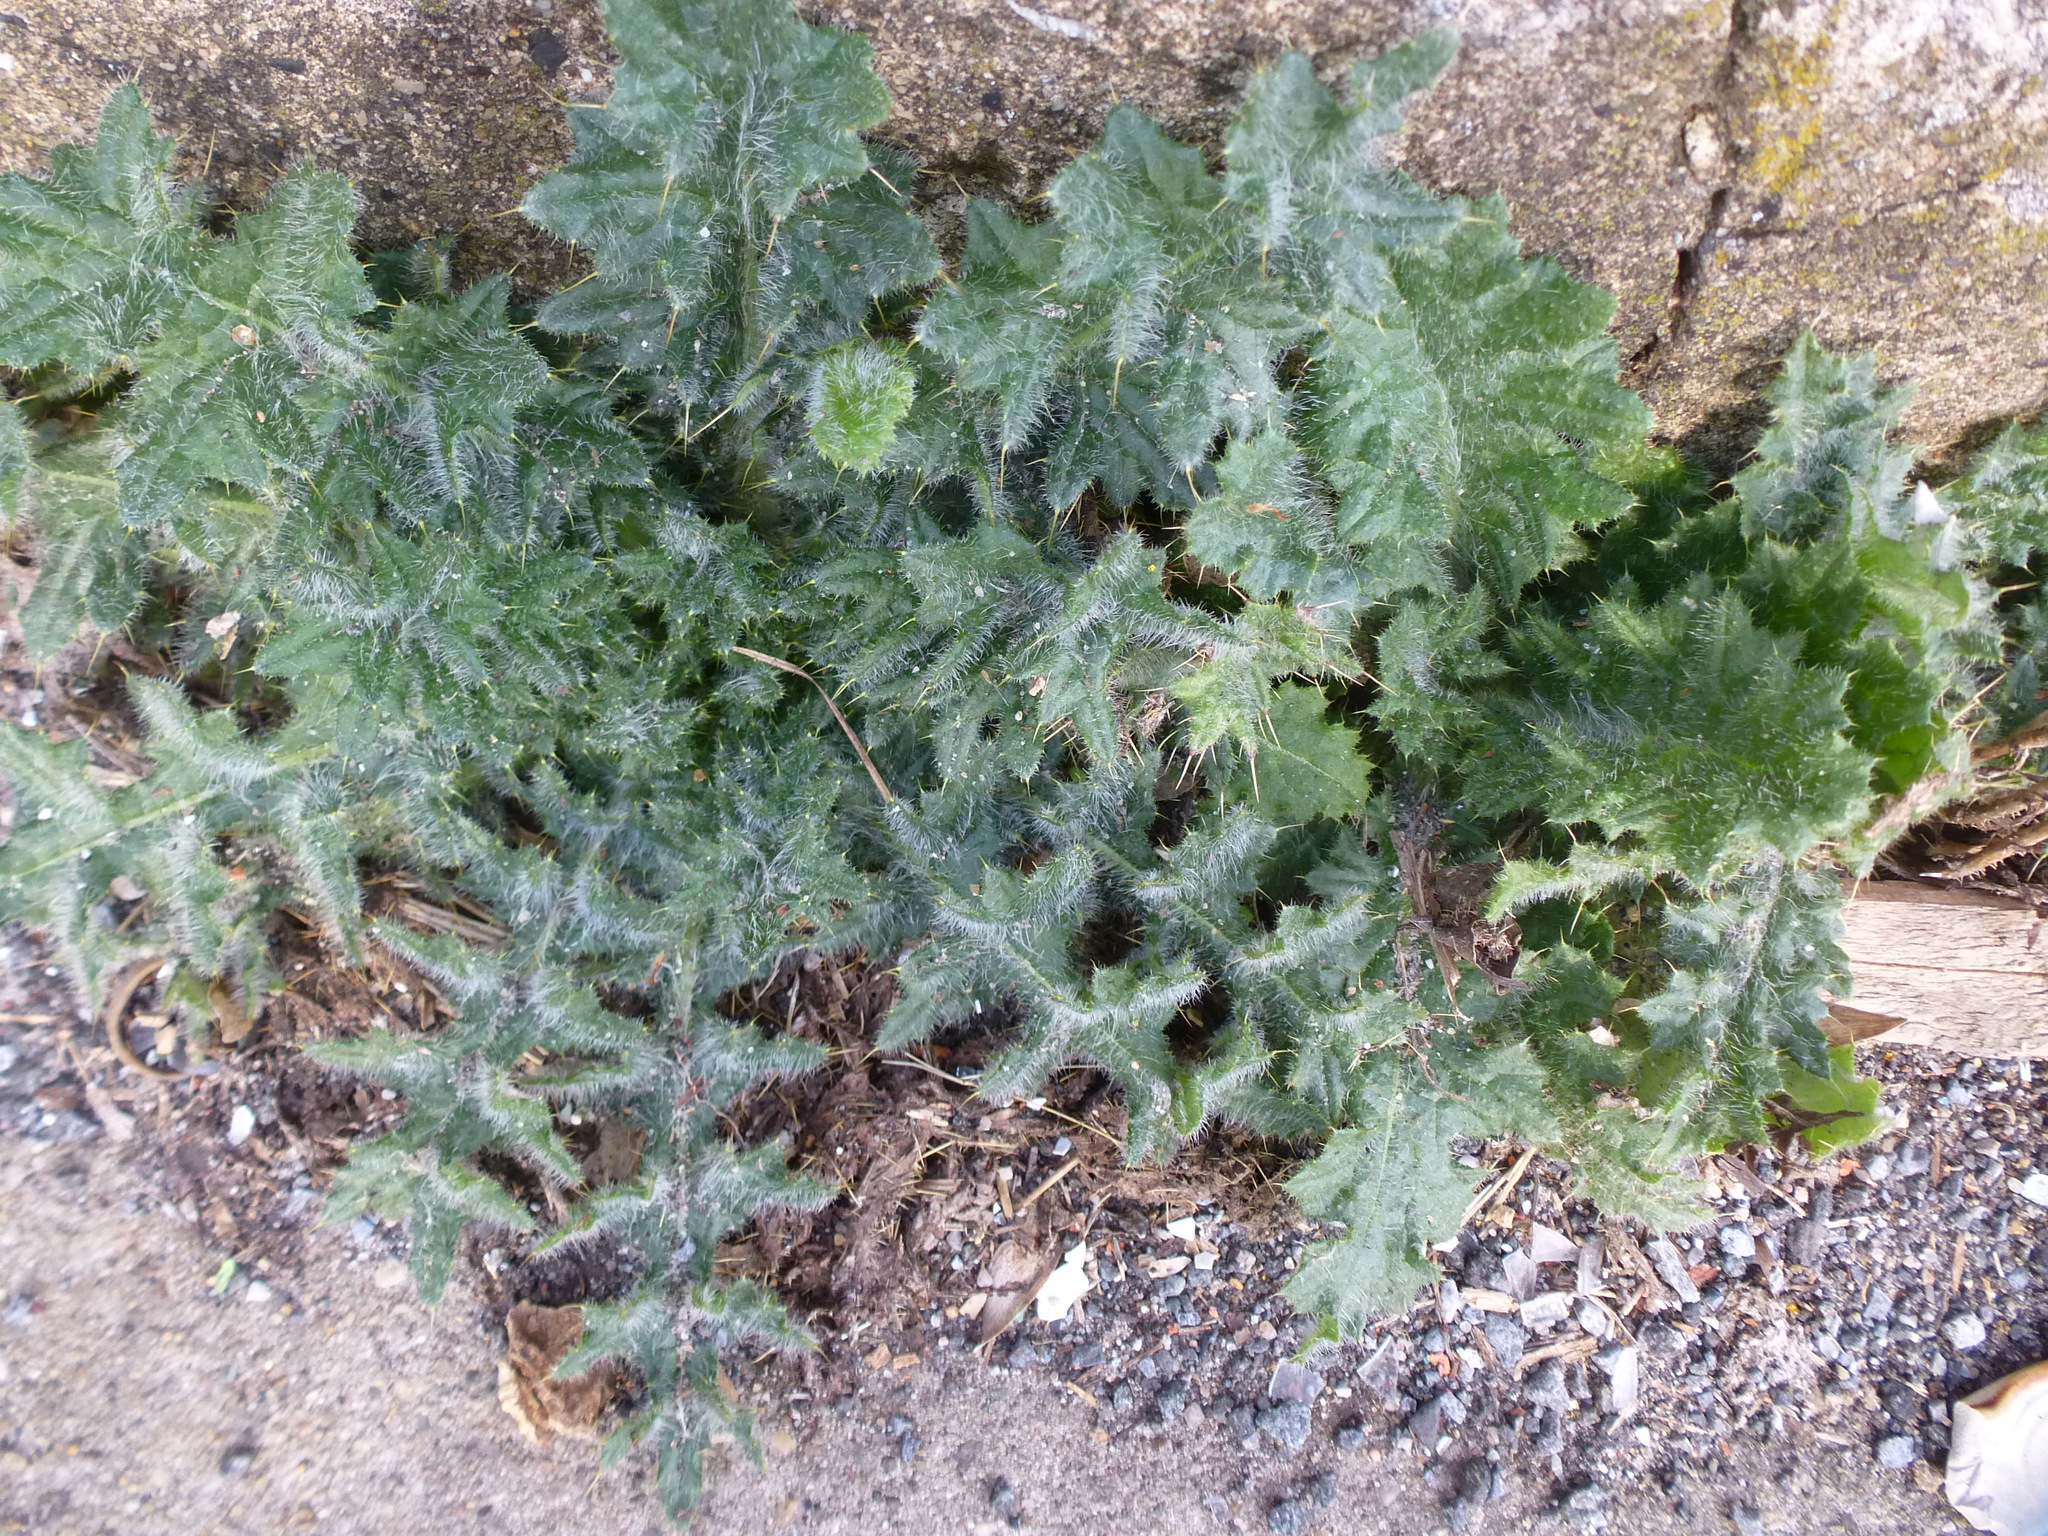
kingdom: Plantae
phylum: Tracheophyta
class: Magnoliopsida
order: Asterales
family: Asteraceae
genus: Cirsium
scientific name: Cirsium vulgare
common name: Bull thistle
